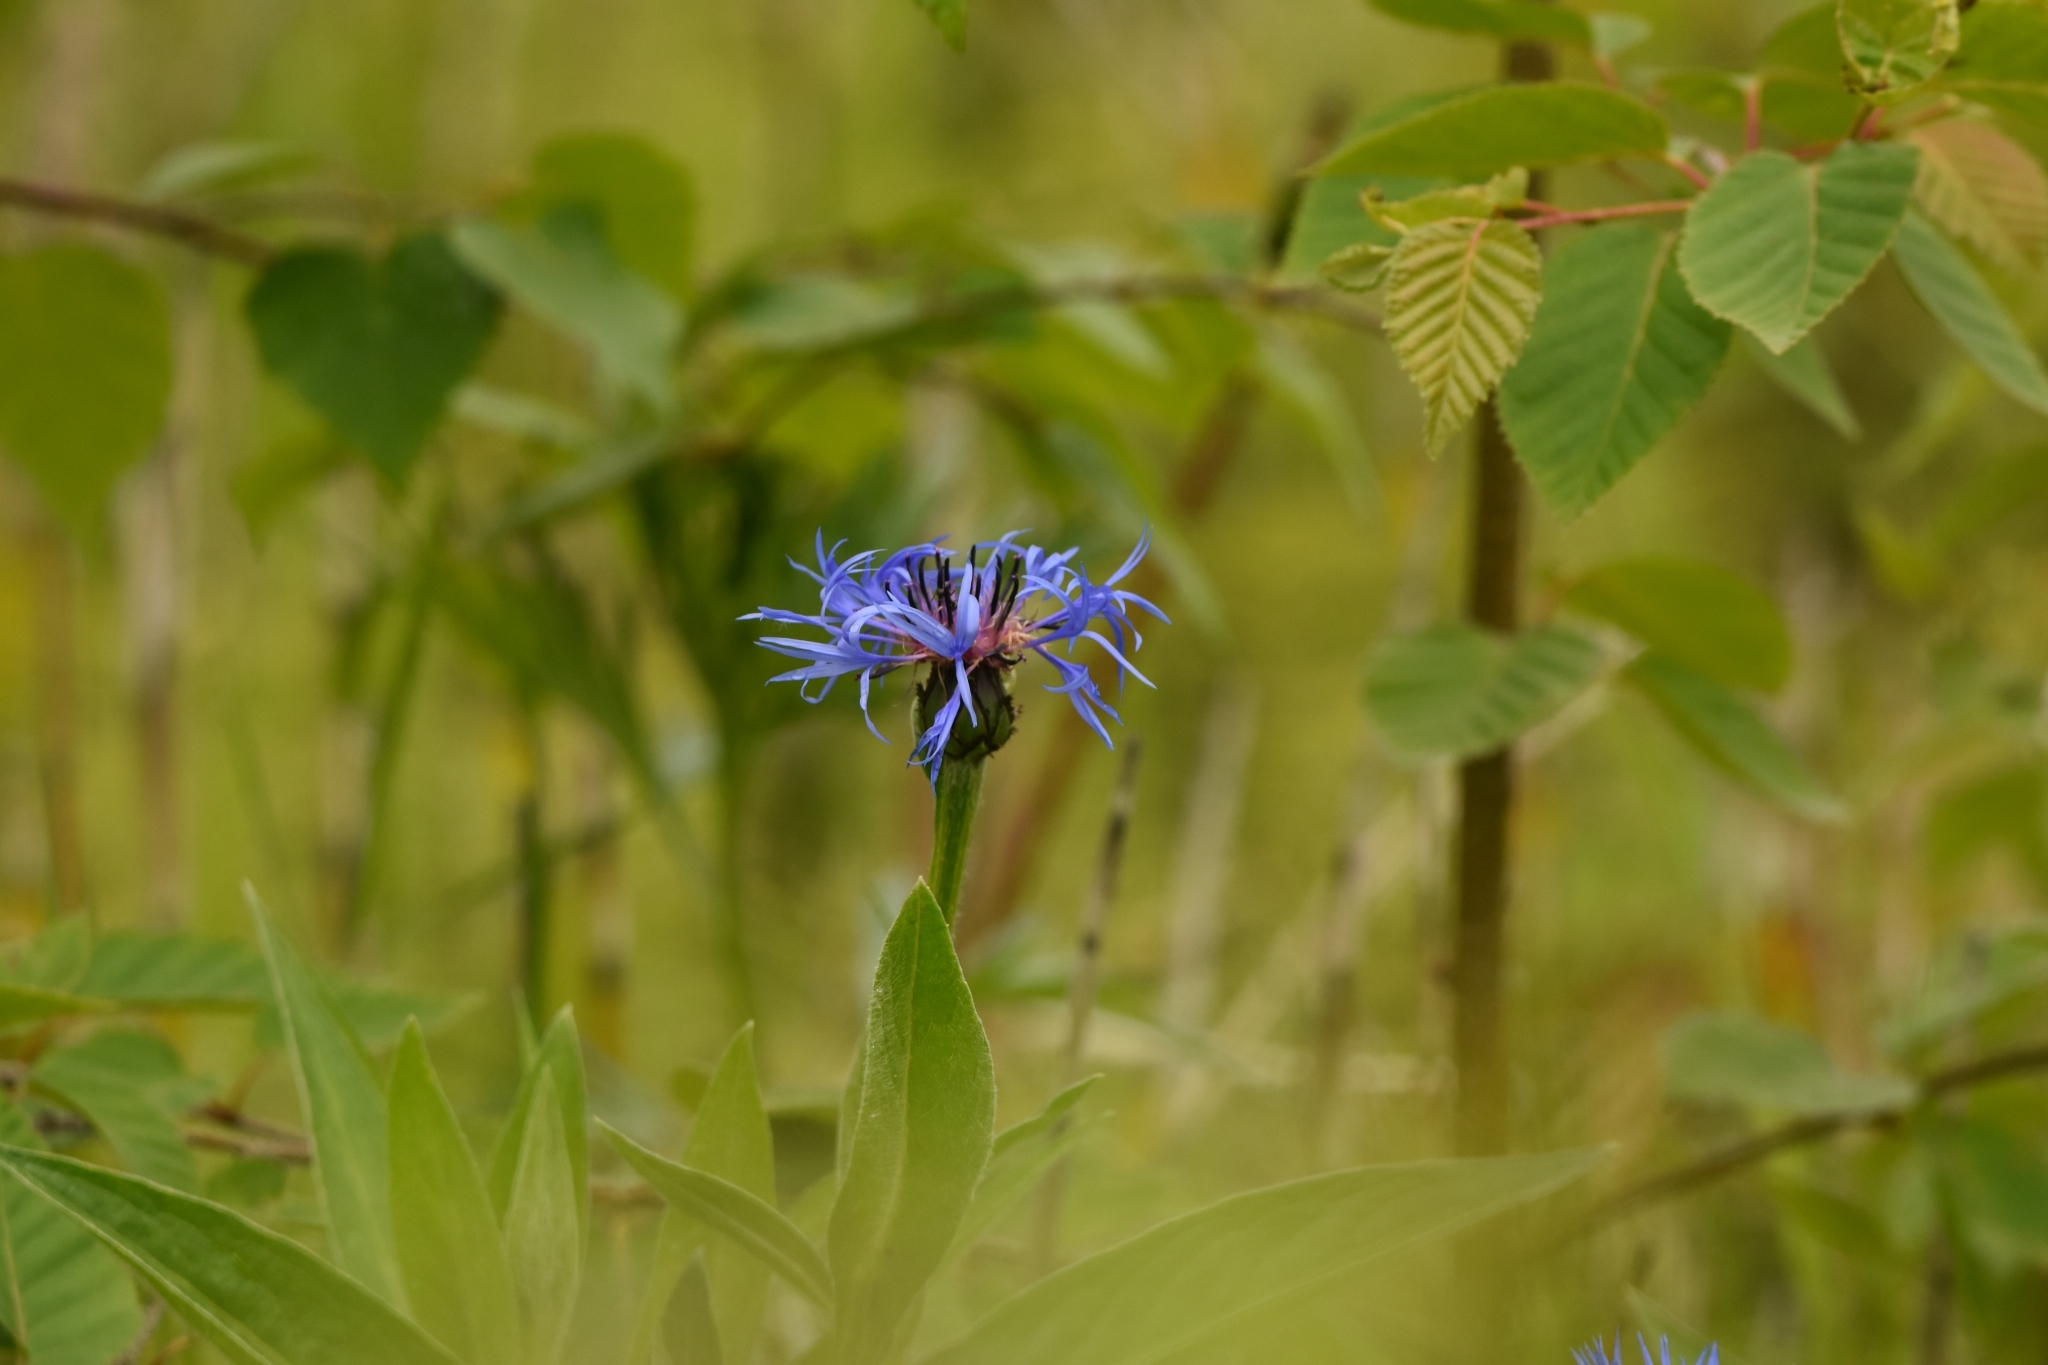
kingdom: Plantae
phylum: Tracheophyta
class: Magnoliopsida
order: Asterales
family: Asteraceae
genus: Centaurea
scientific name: Centaurea montana
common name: Perennial cornflower
